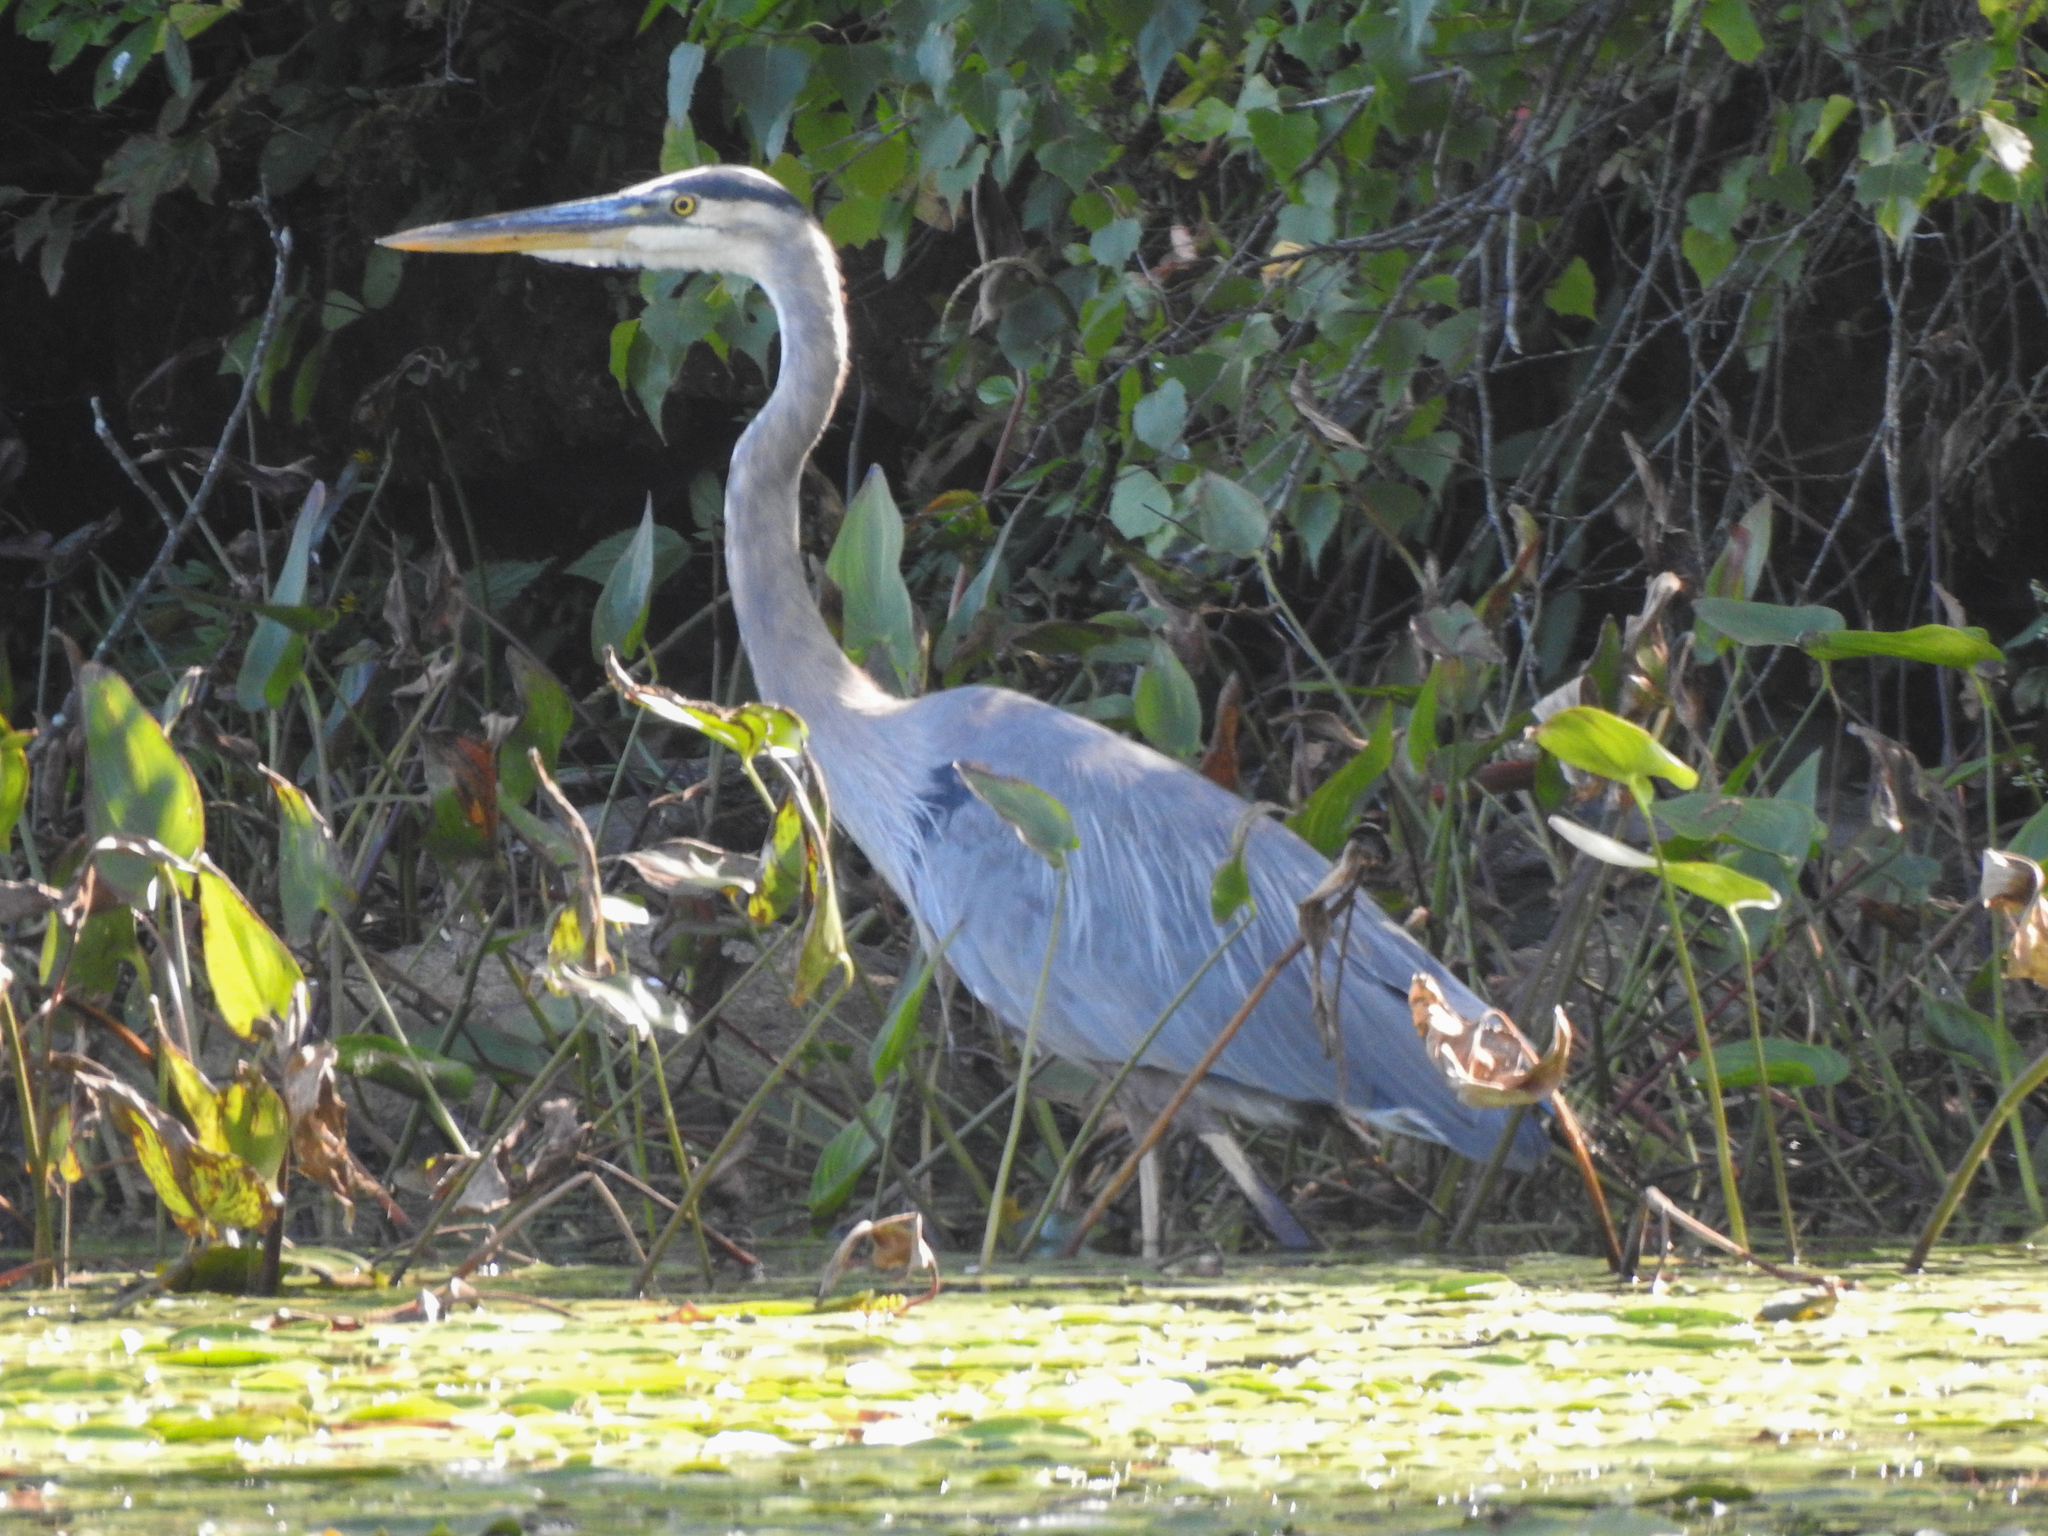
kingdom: Animalia
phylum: Chordata
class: Aves
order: Pelecaniformes
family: Ardeidae
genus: Ardea
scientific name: Ardea herodias
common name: Great blue heron
